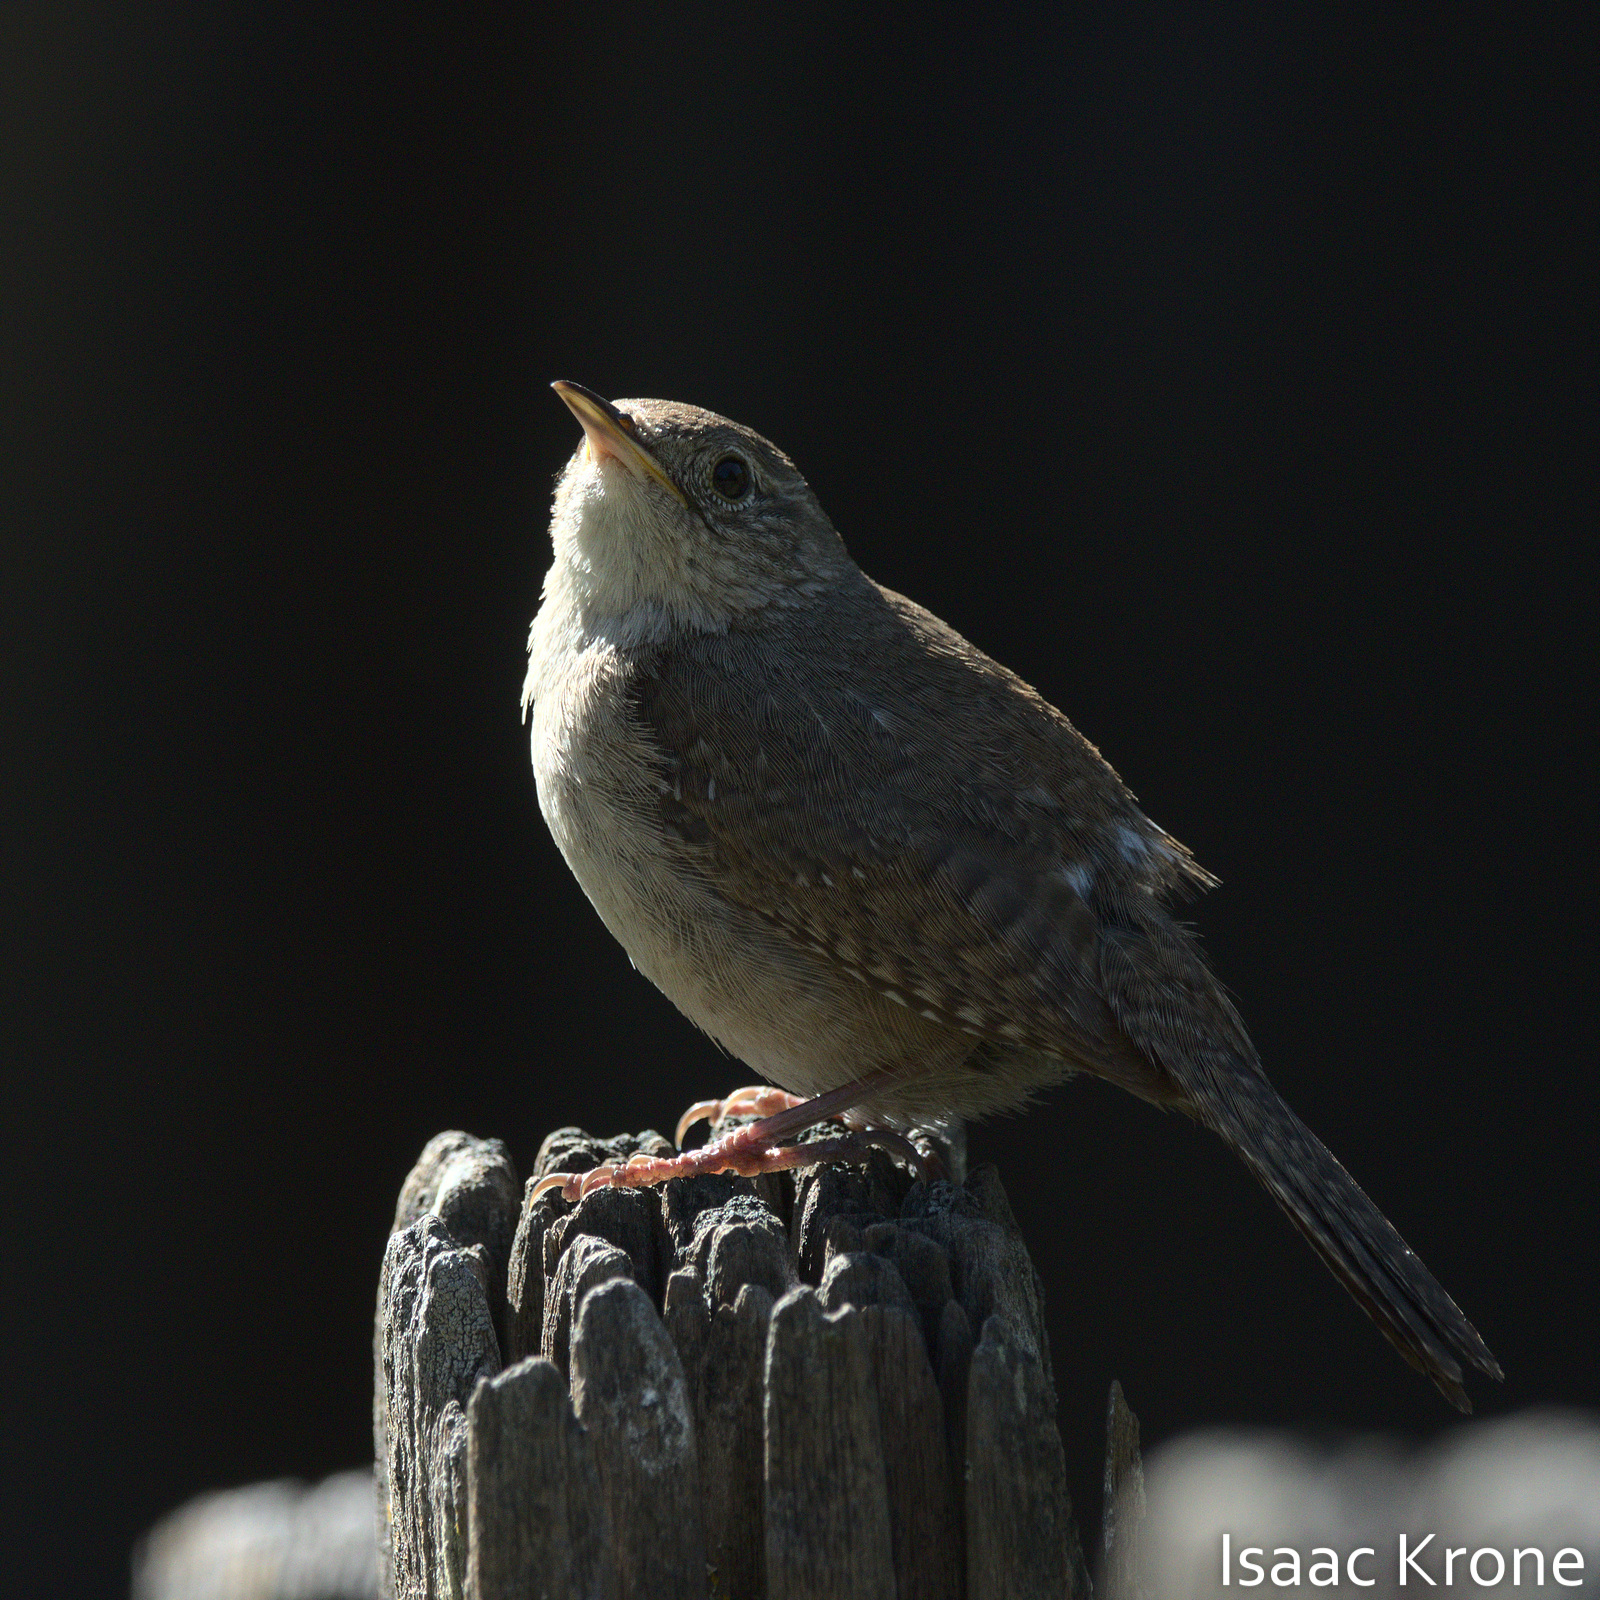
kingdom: Animalia
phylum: Chordata
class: Aves
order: Passeriformes
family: Troglodytidae
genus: Troglodytes
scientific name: Troglodytes aedon
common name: House wren
